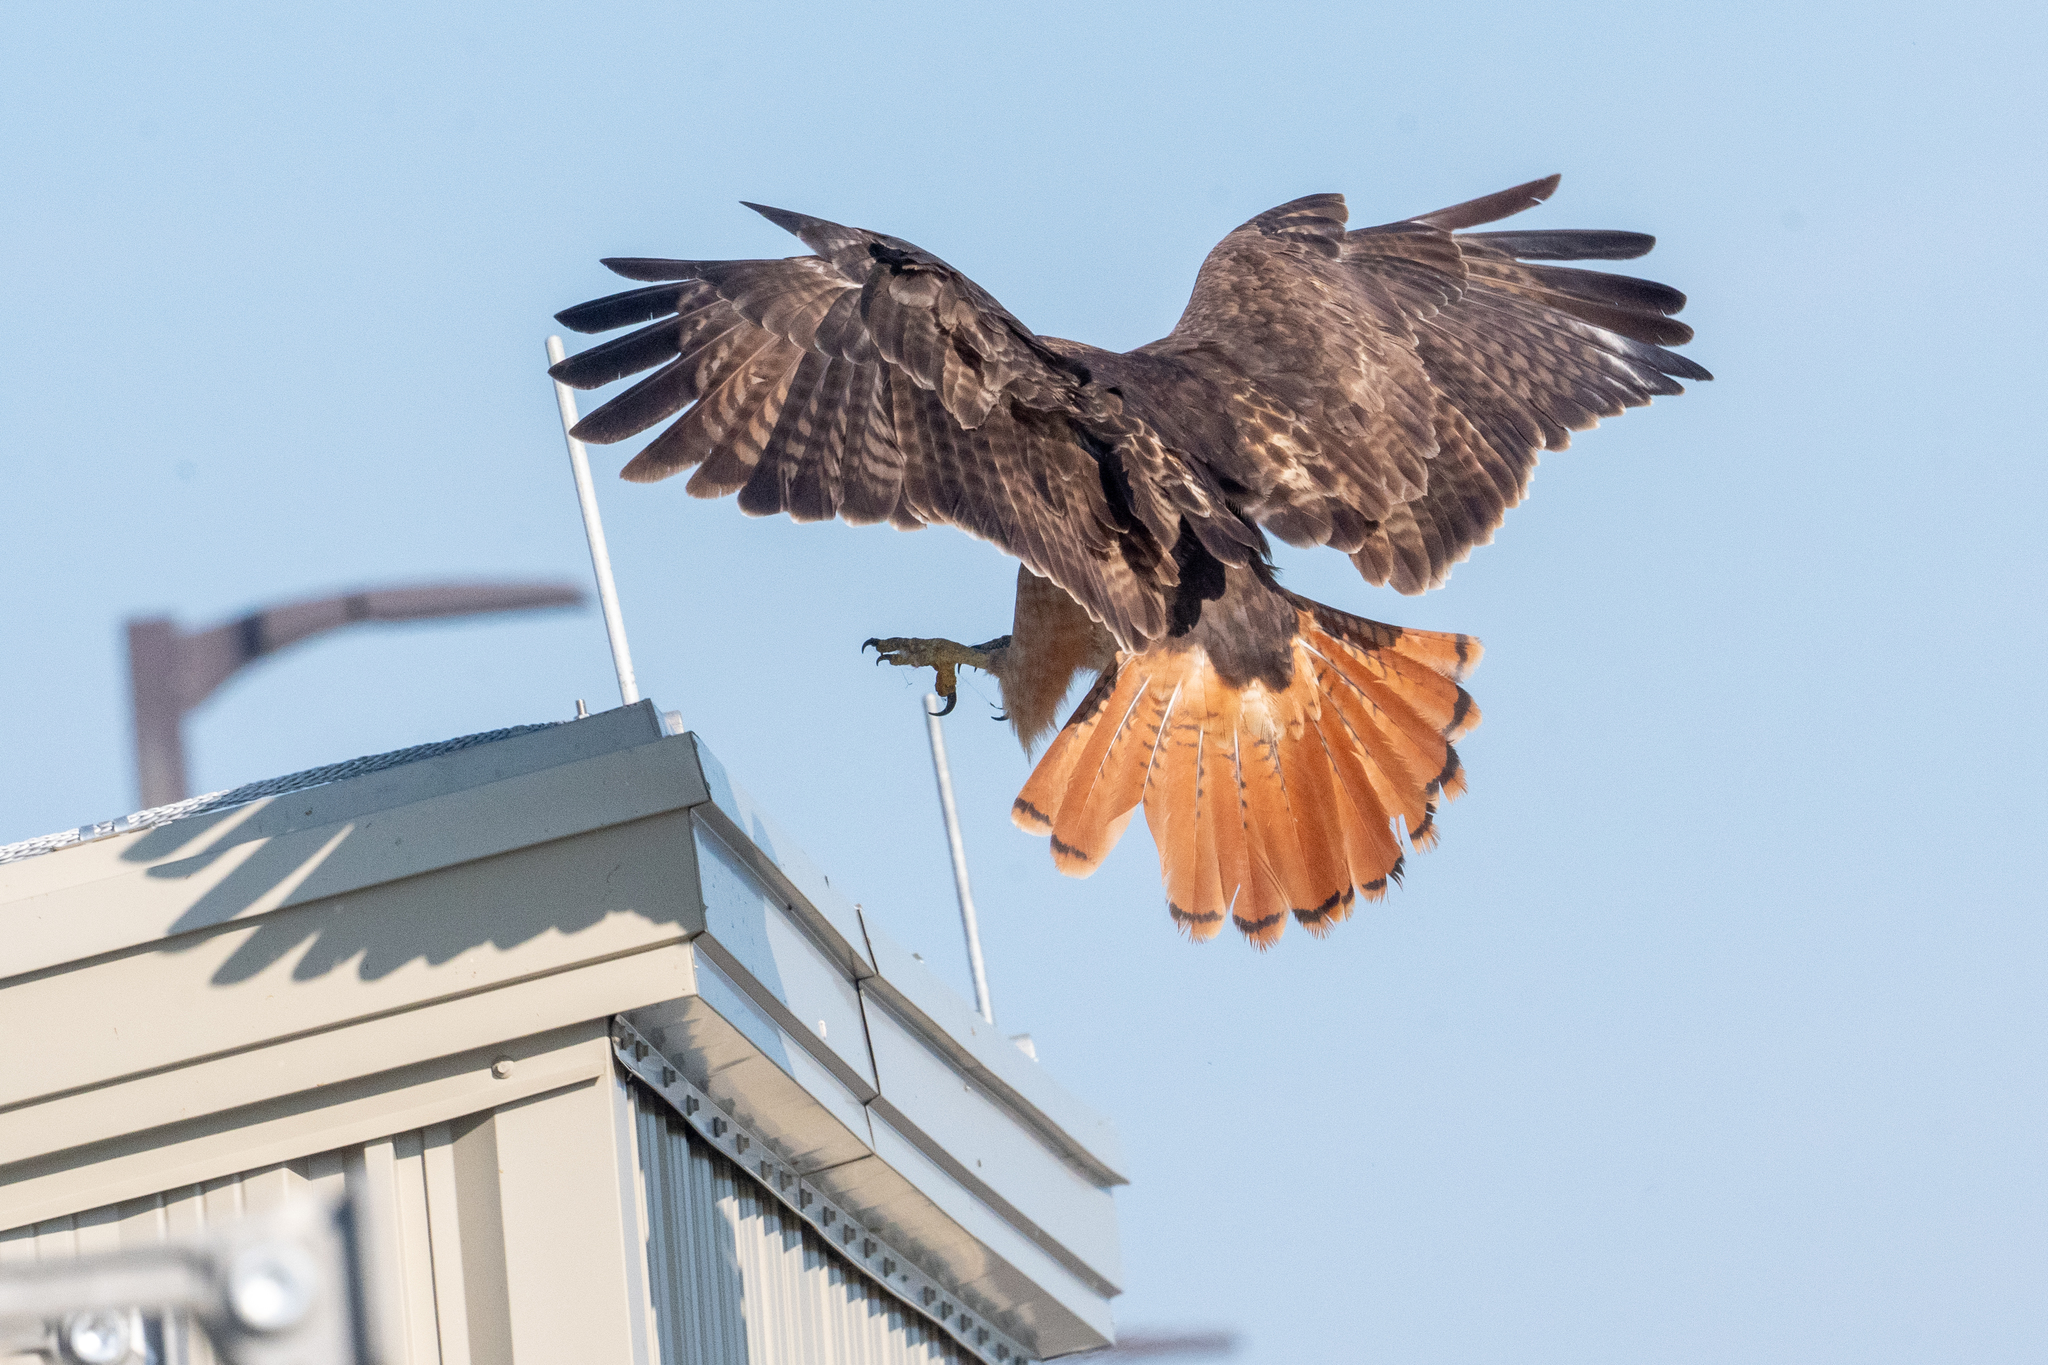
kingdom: Animalia
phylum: Chordata
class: Aves
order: Accipitriformes
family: Accipitridae
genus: Buteo
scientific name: Buteo jamaicensis
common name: Red-tailed hawk
